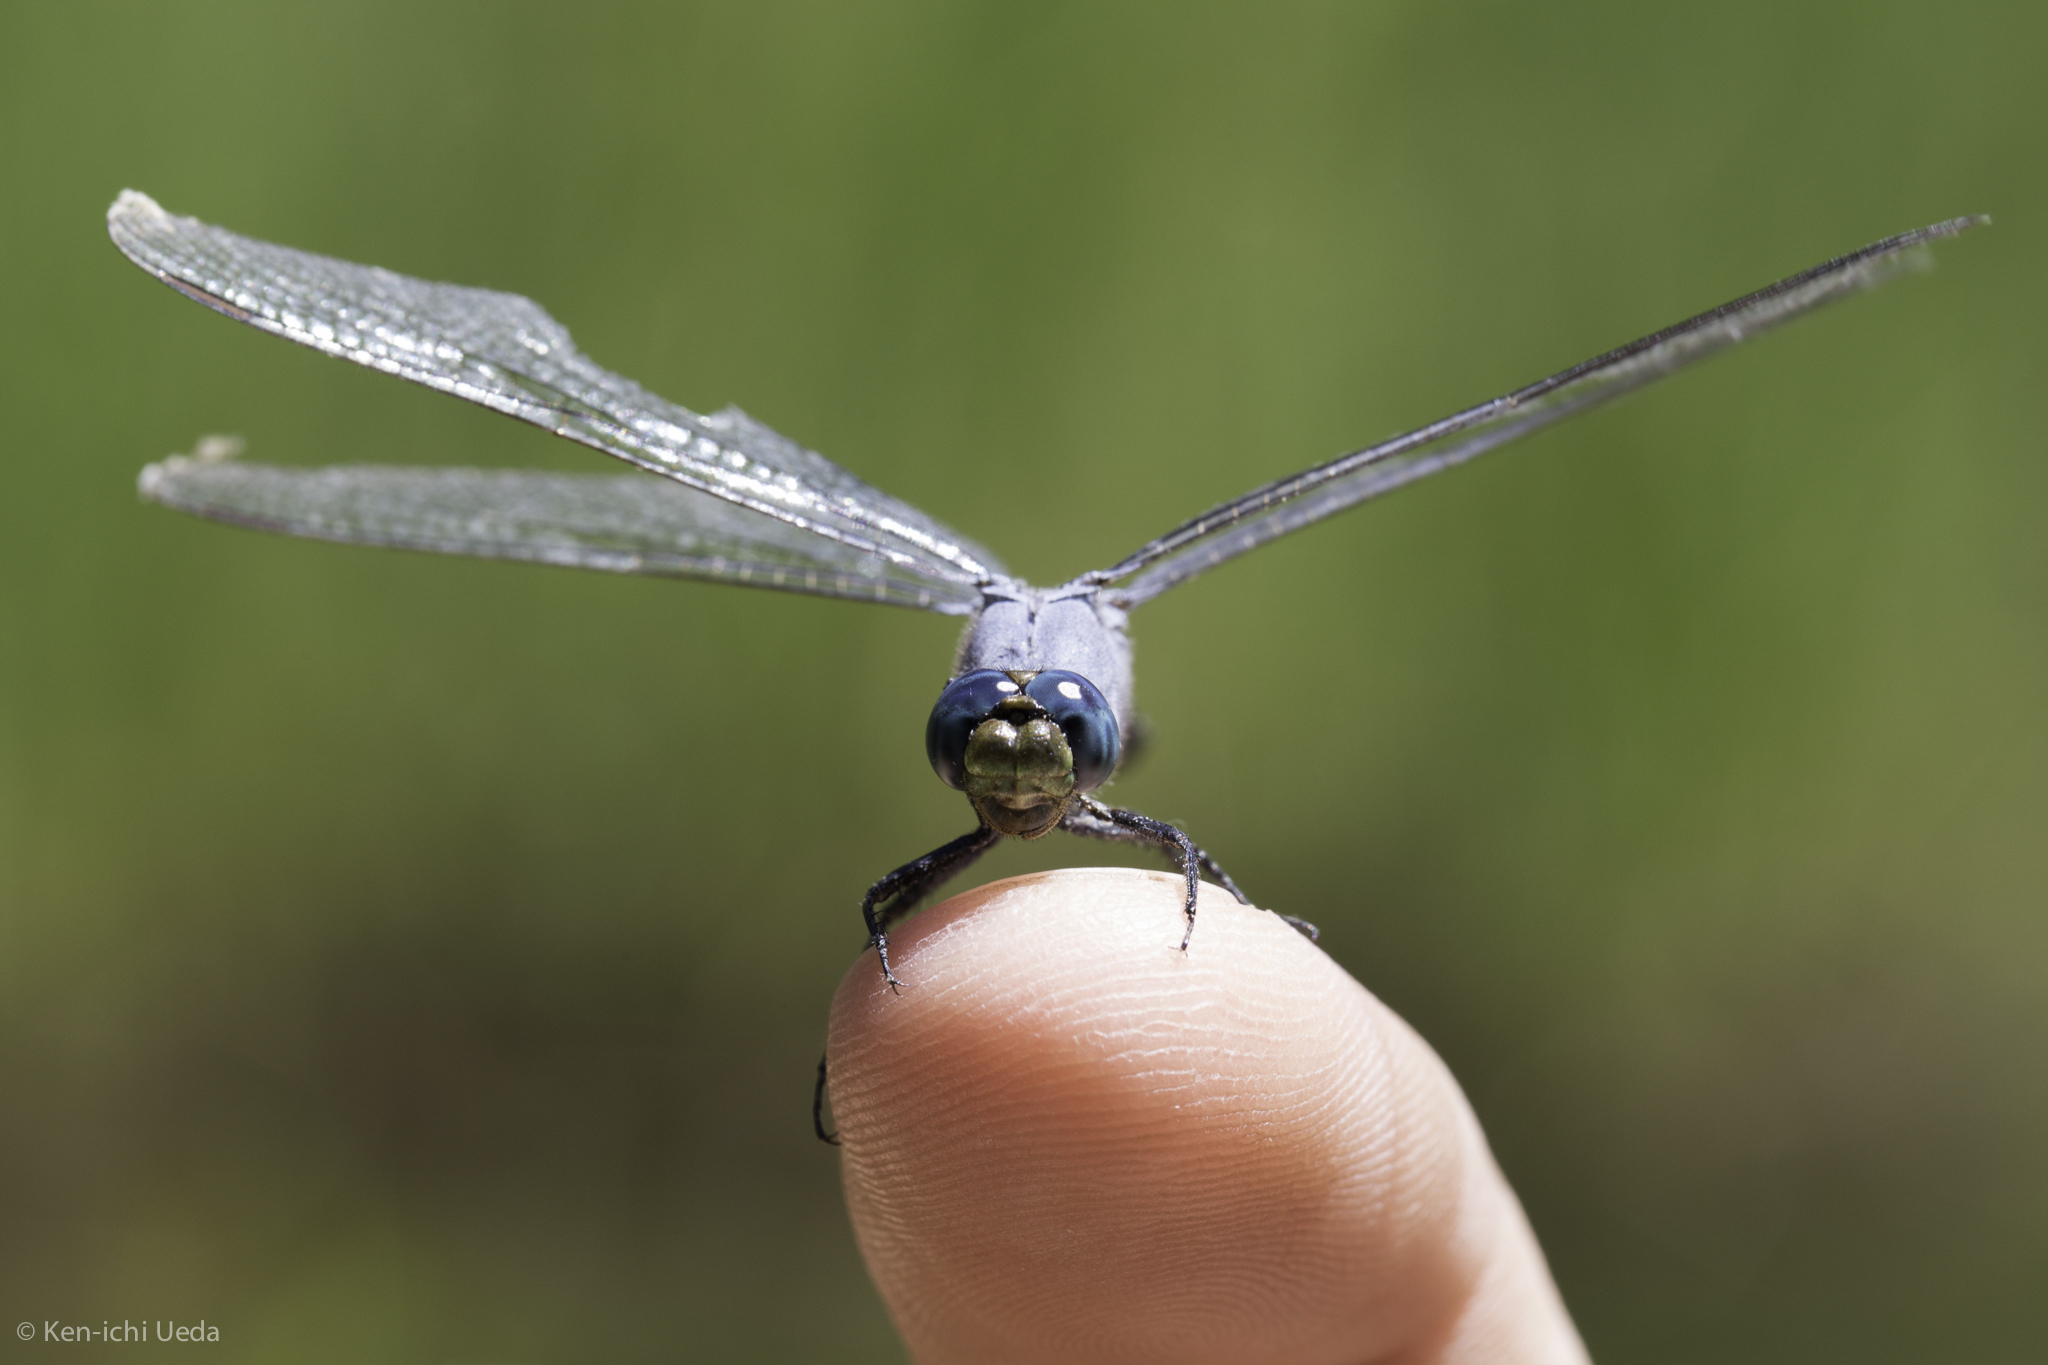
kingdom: Animalia
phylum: Arthropoda
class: Insecta
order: Odonata
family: Libellulidae
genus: Erythemis
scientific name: Erythemis collocata
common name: Western pondhawk
